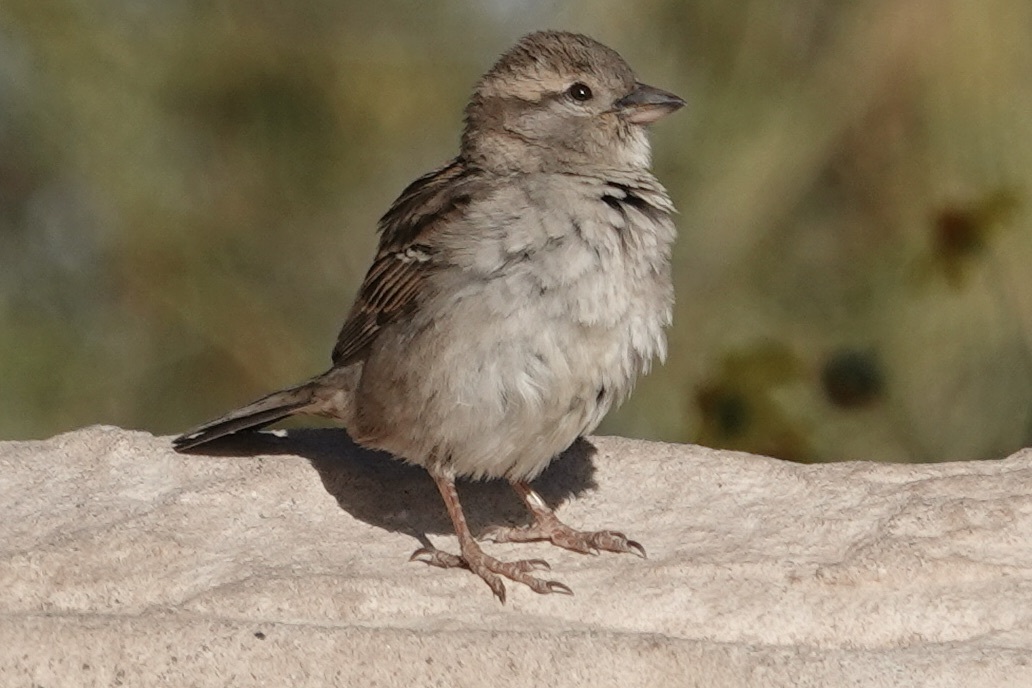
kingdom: Animalia
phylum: Chordata
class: Aves
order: Passeriformes
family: Passeridae
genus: Passer
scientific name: Passer domesticus
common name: House sparrow
